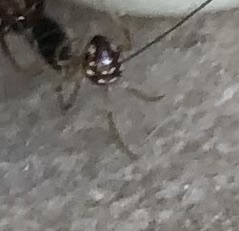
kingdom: Animalia
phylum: Arthropoda
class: Arachnida
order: Araneae
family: Theridiidae
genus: Steatoda
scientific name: Steatoda triangulosa
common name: Triangulate bud spider
